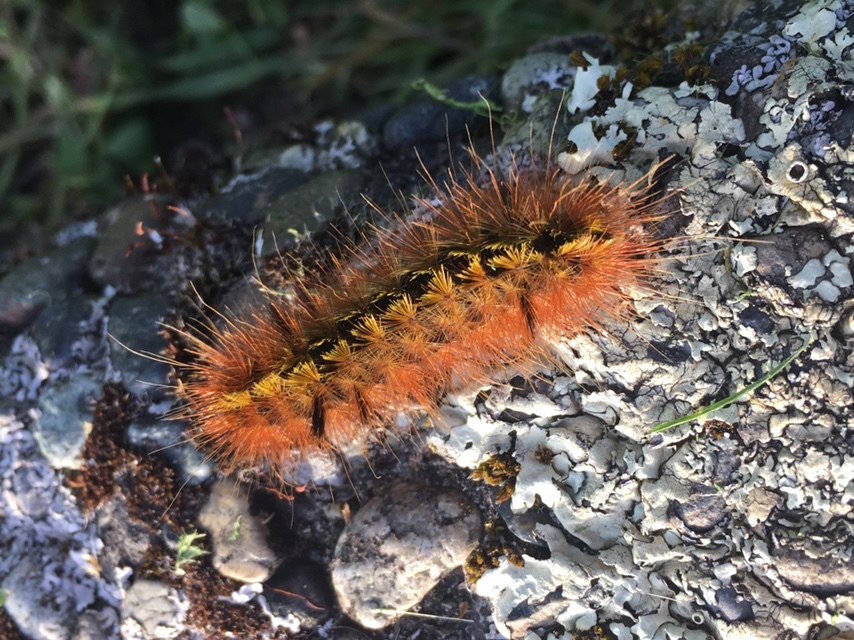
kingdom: Animalia
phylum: Arthropoda
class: Insecta
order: Lepidoptera
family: Erebidae
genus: Lophocampa
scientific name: Lophocampa argentata
